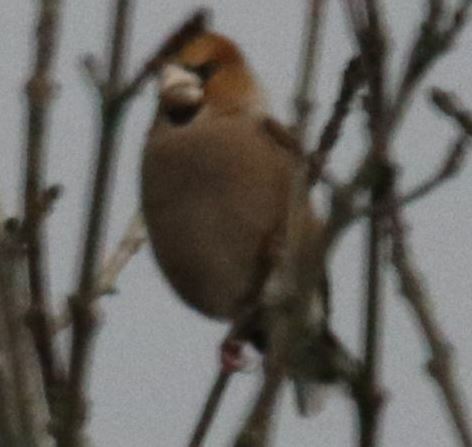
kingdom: Animalia
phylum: Chordata
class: Aves
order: Passeriformes
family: Fringillidae
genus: Coccothraustes
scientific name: Coccothraustes coccothraustes
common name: Hawfinch
